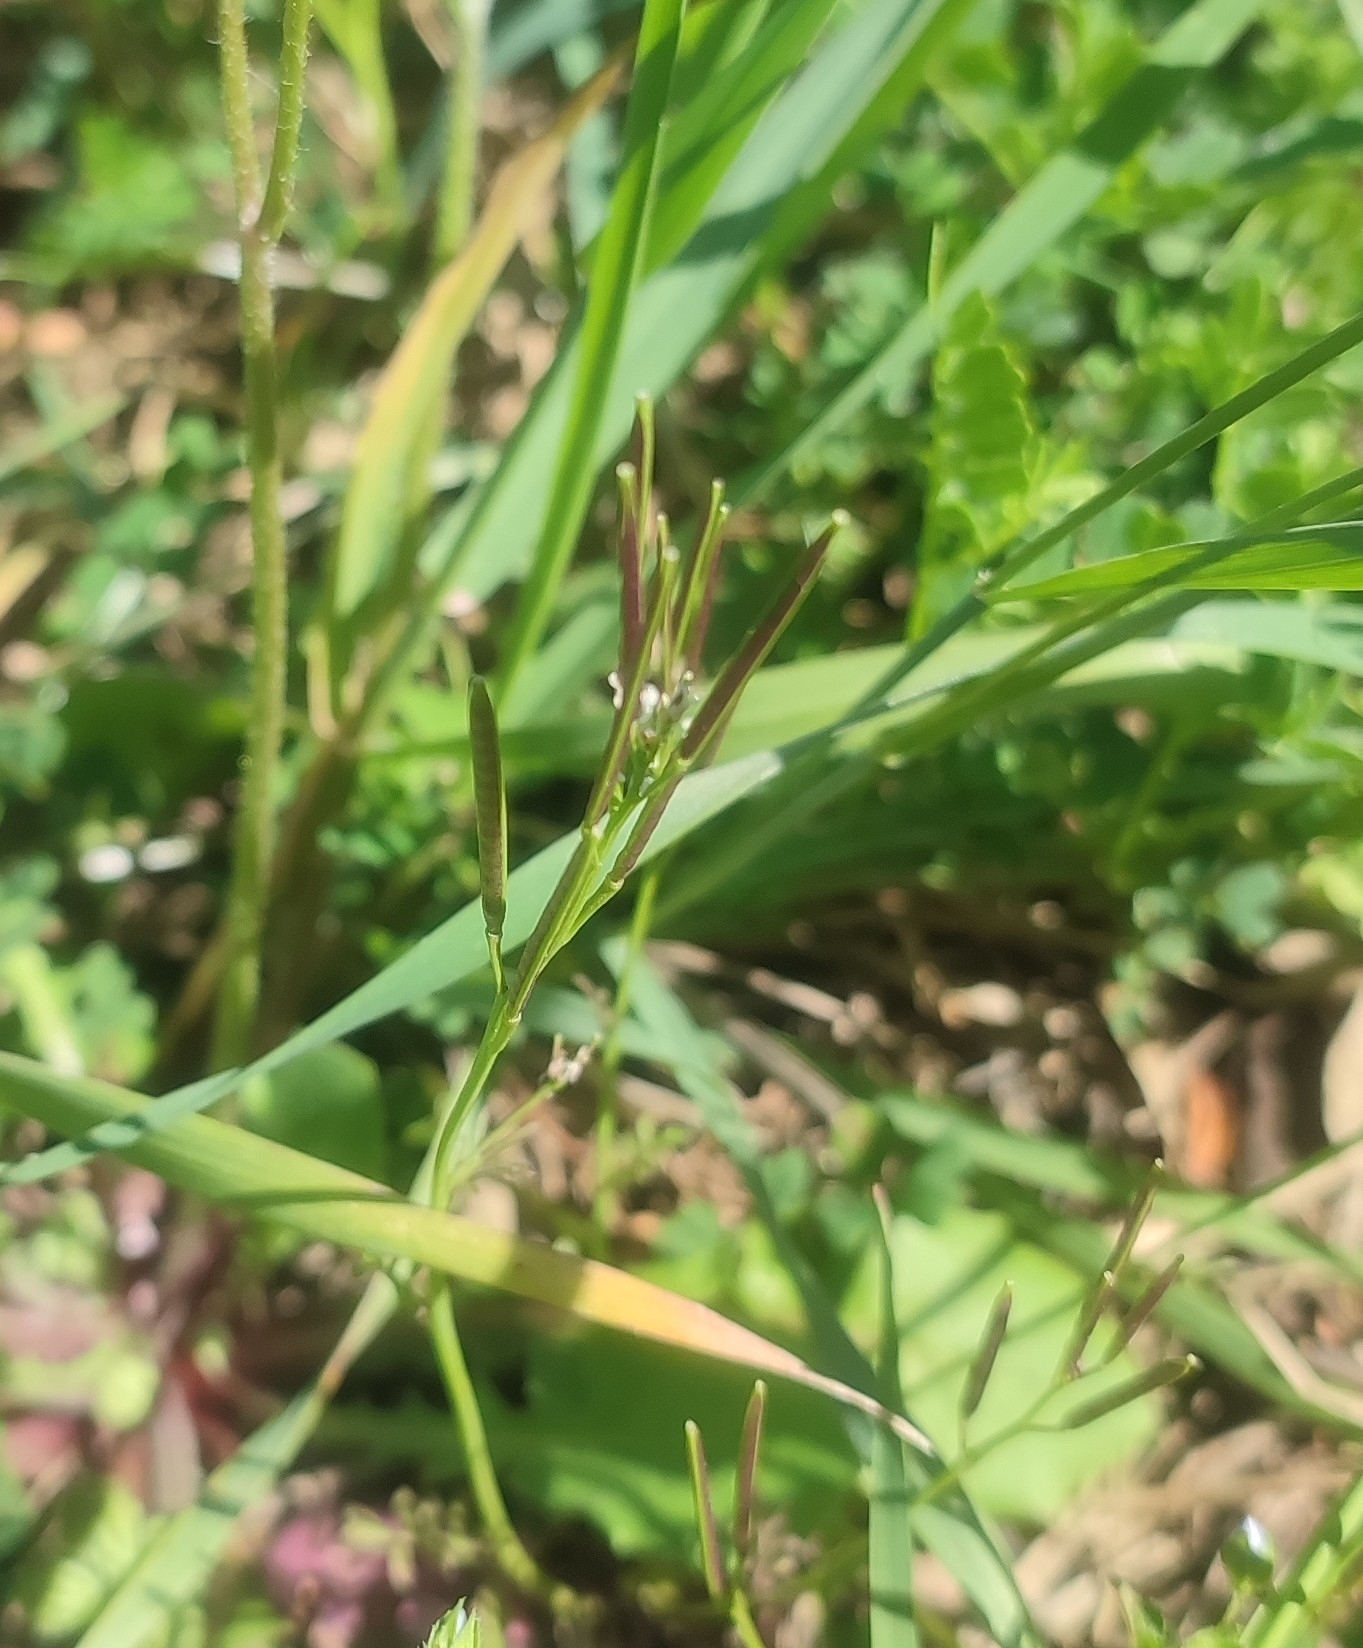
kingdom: Plantae
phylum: Tracheophyta
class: Magnoliopsida
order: Brassicales
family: Brassicaceae
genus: Cardamine
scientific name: Cardamine hirsuta
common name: Hairy bittercress
